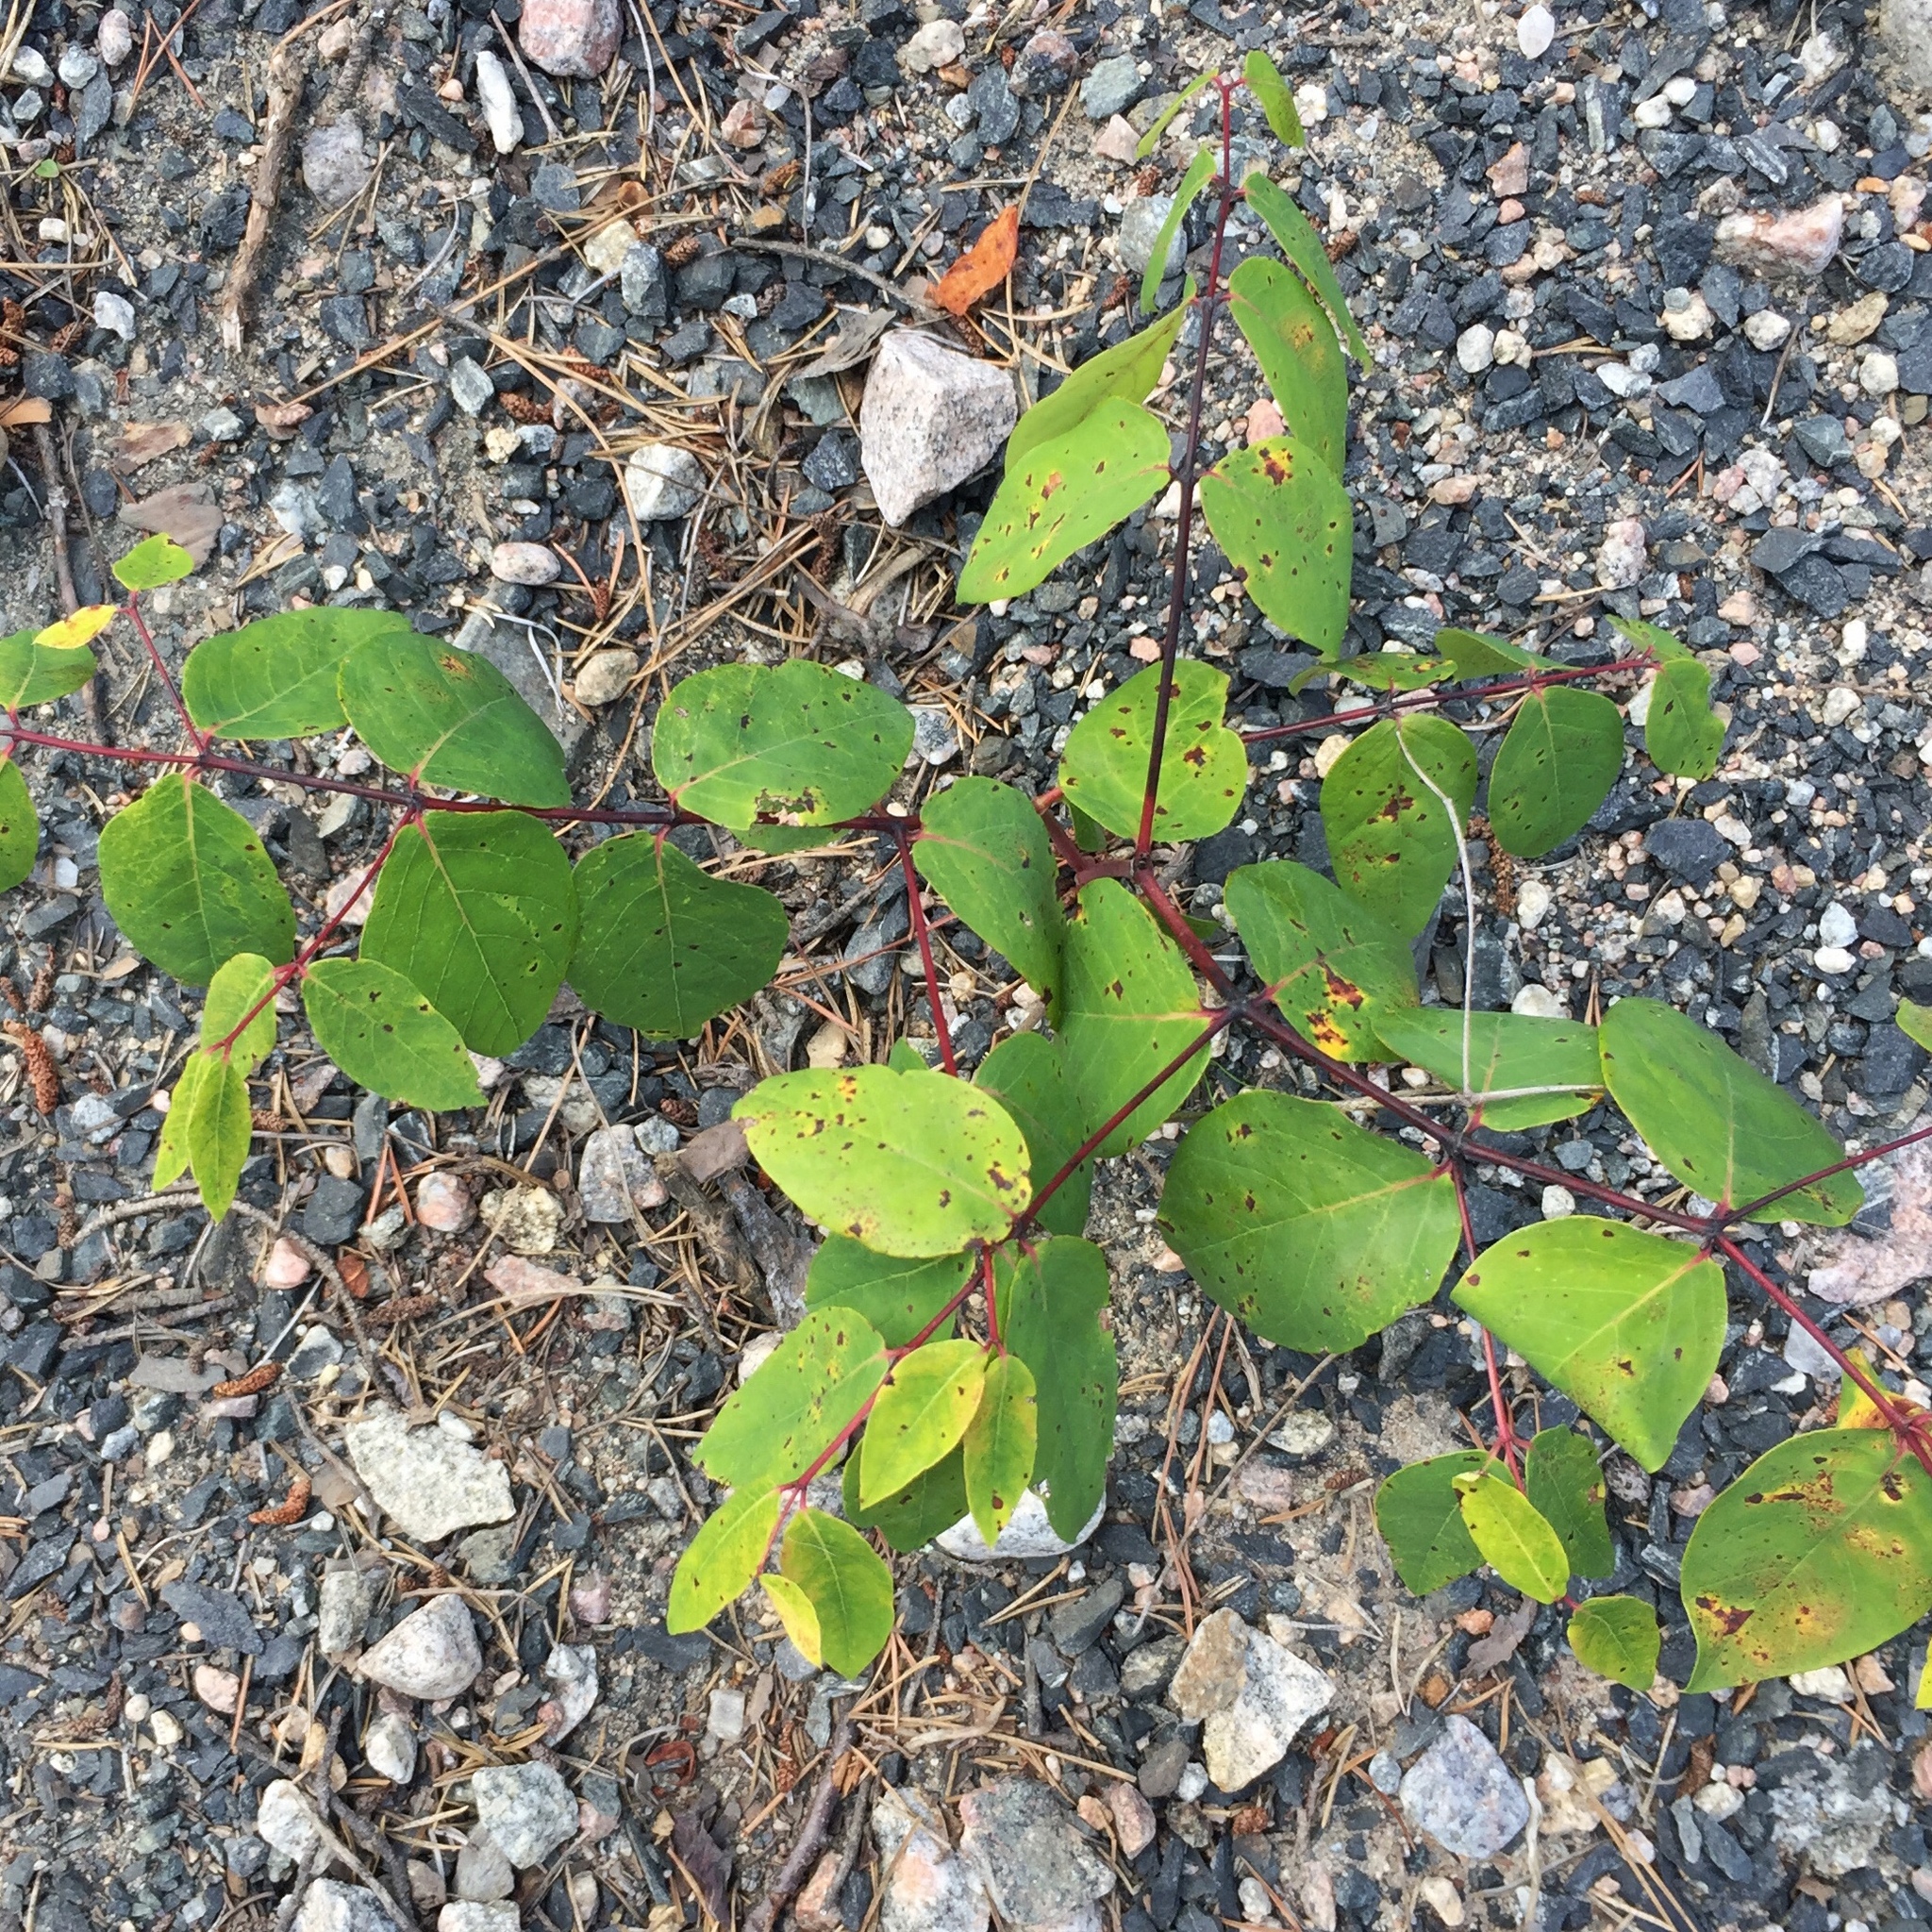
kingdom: Plantae
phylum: Tracheophyta
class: Magnoliopsida
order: Gentianales
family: Apocynaceae
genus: Apocynum
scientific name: Apocynum androsaemifolium
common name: Spreading dogbane
